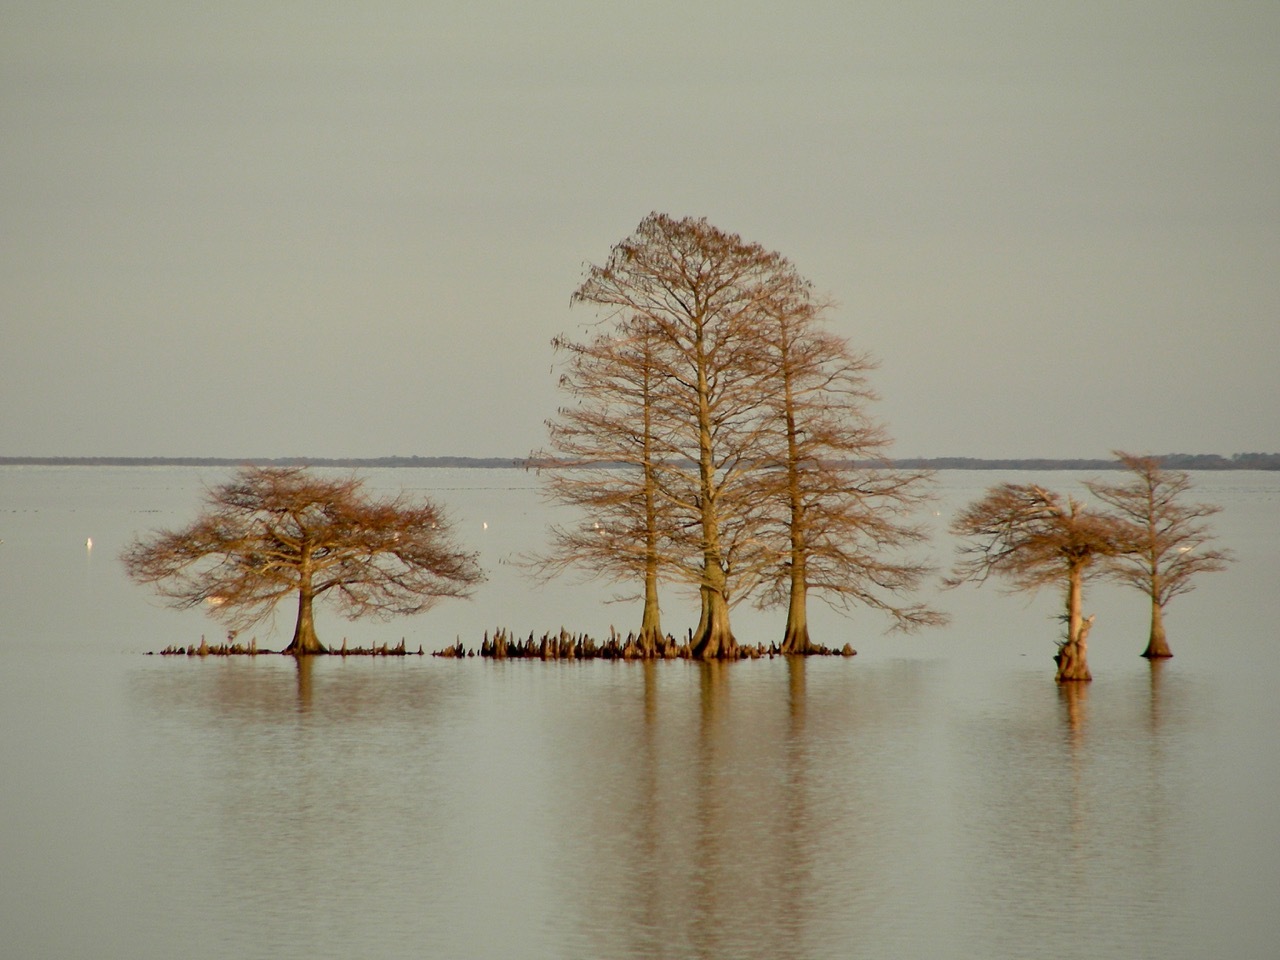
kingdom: Plantae
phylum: Tracheophyta
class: Pinopsida
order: Pinales
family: Cupressaceae
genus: Taxodium
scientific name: Taxodium distichum
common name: Bald cypress
